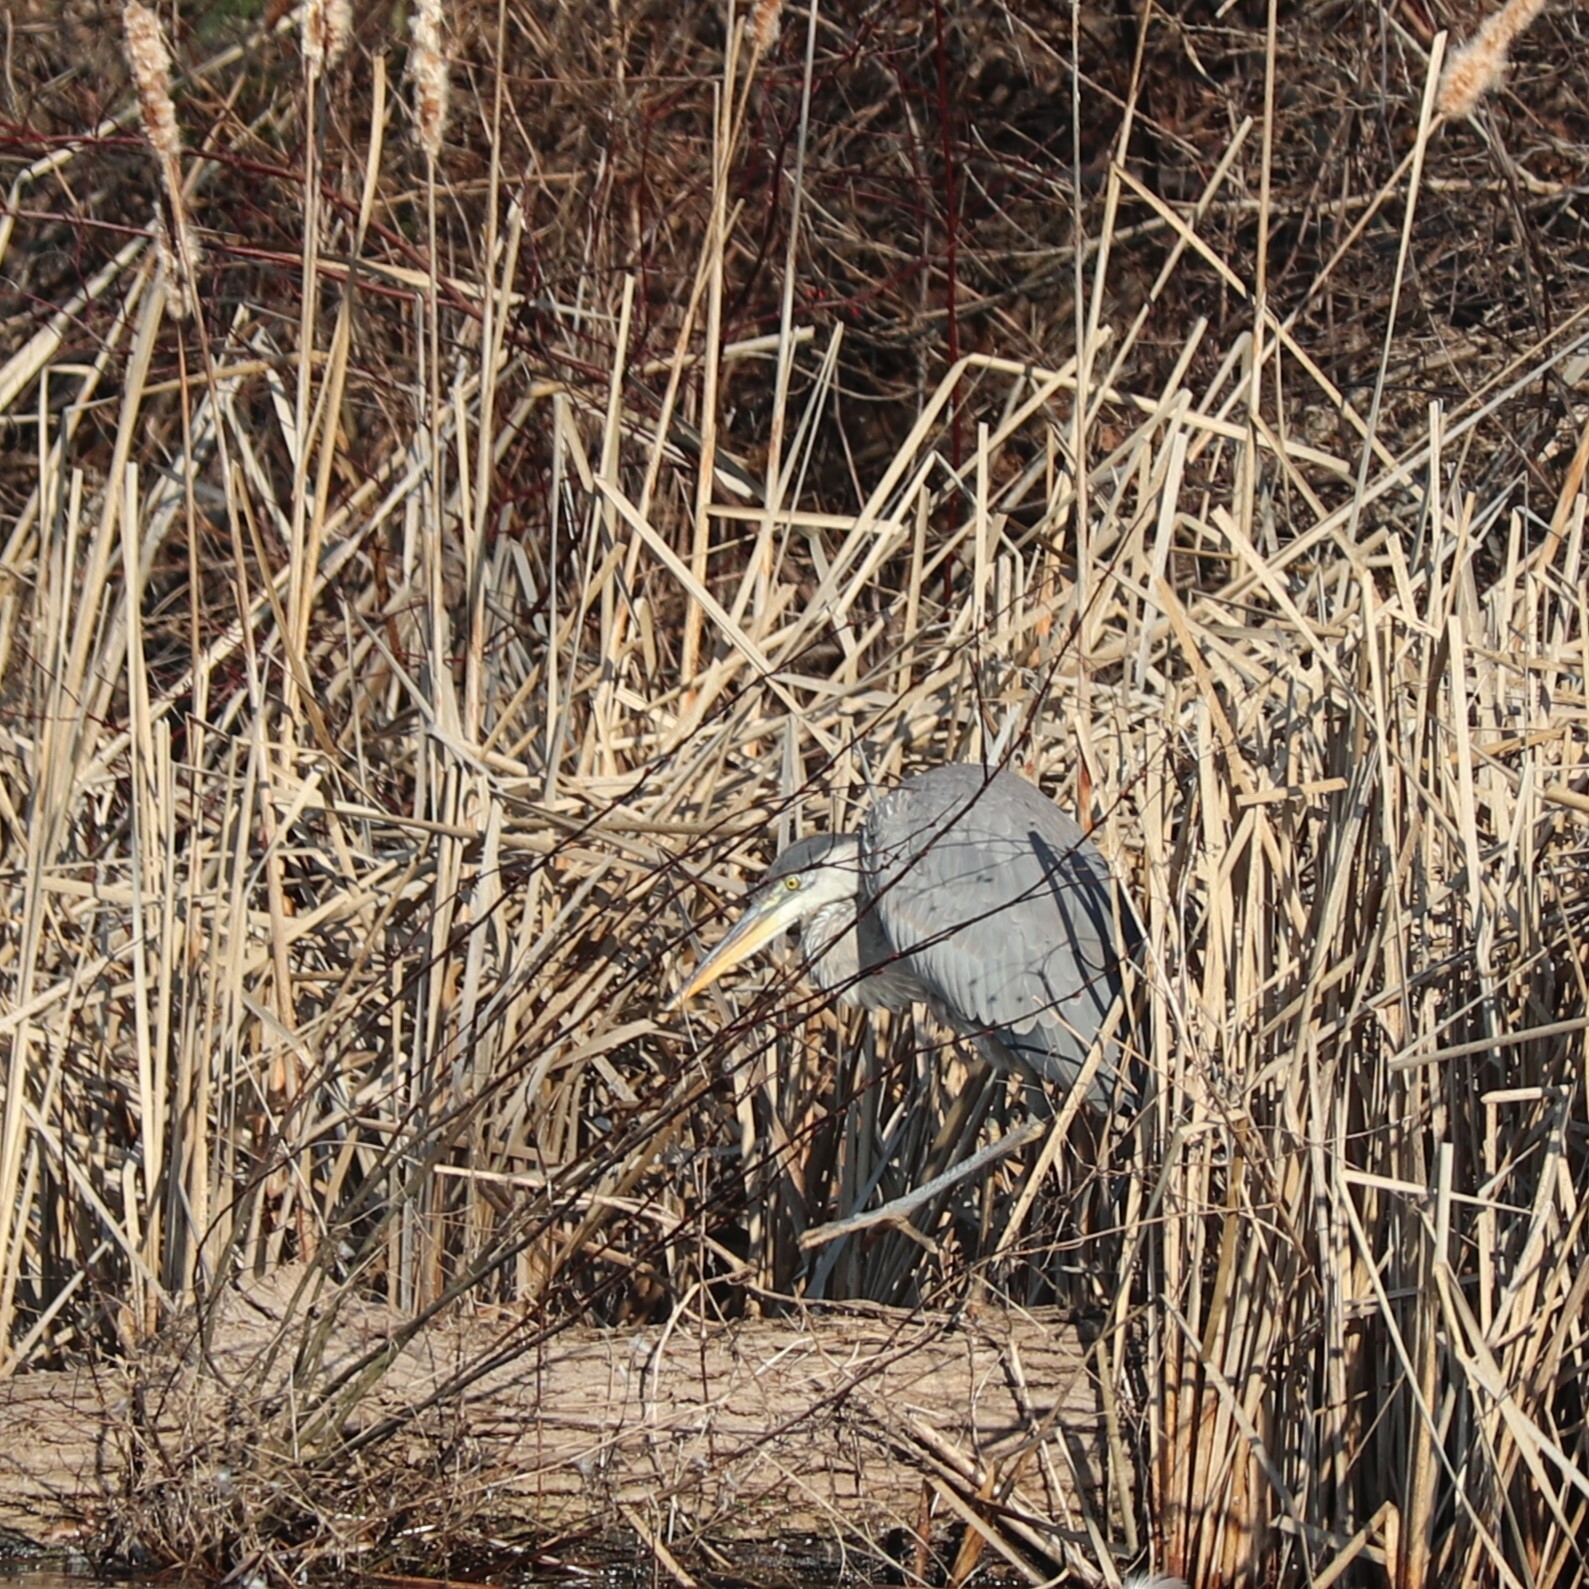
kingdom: Animalia
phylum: Chordata
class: Aves
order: Pelecaniformes
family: Ardeidae
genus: Ardea
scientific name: Ardea herodias
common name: Great blue heron
